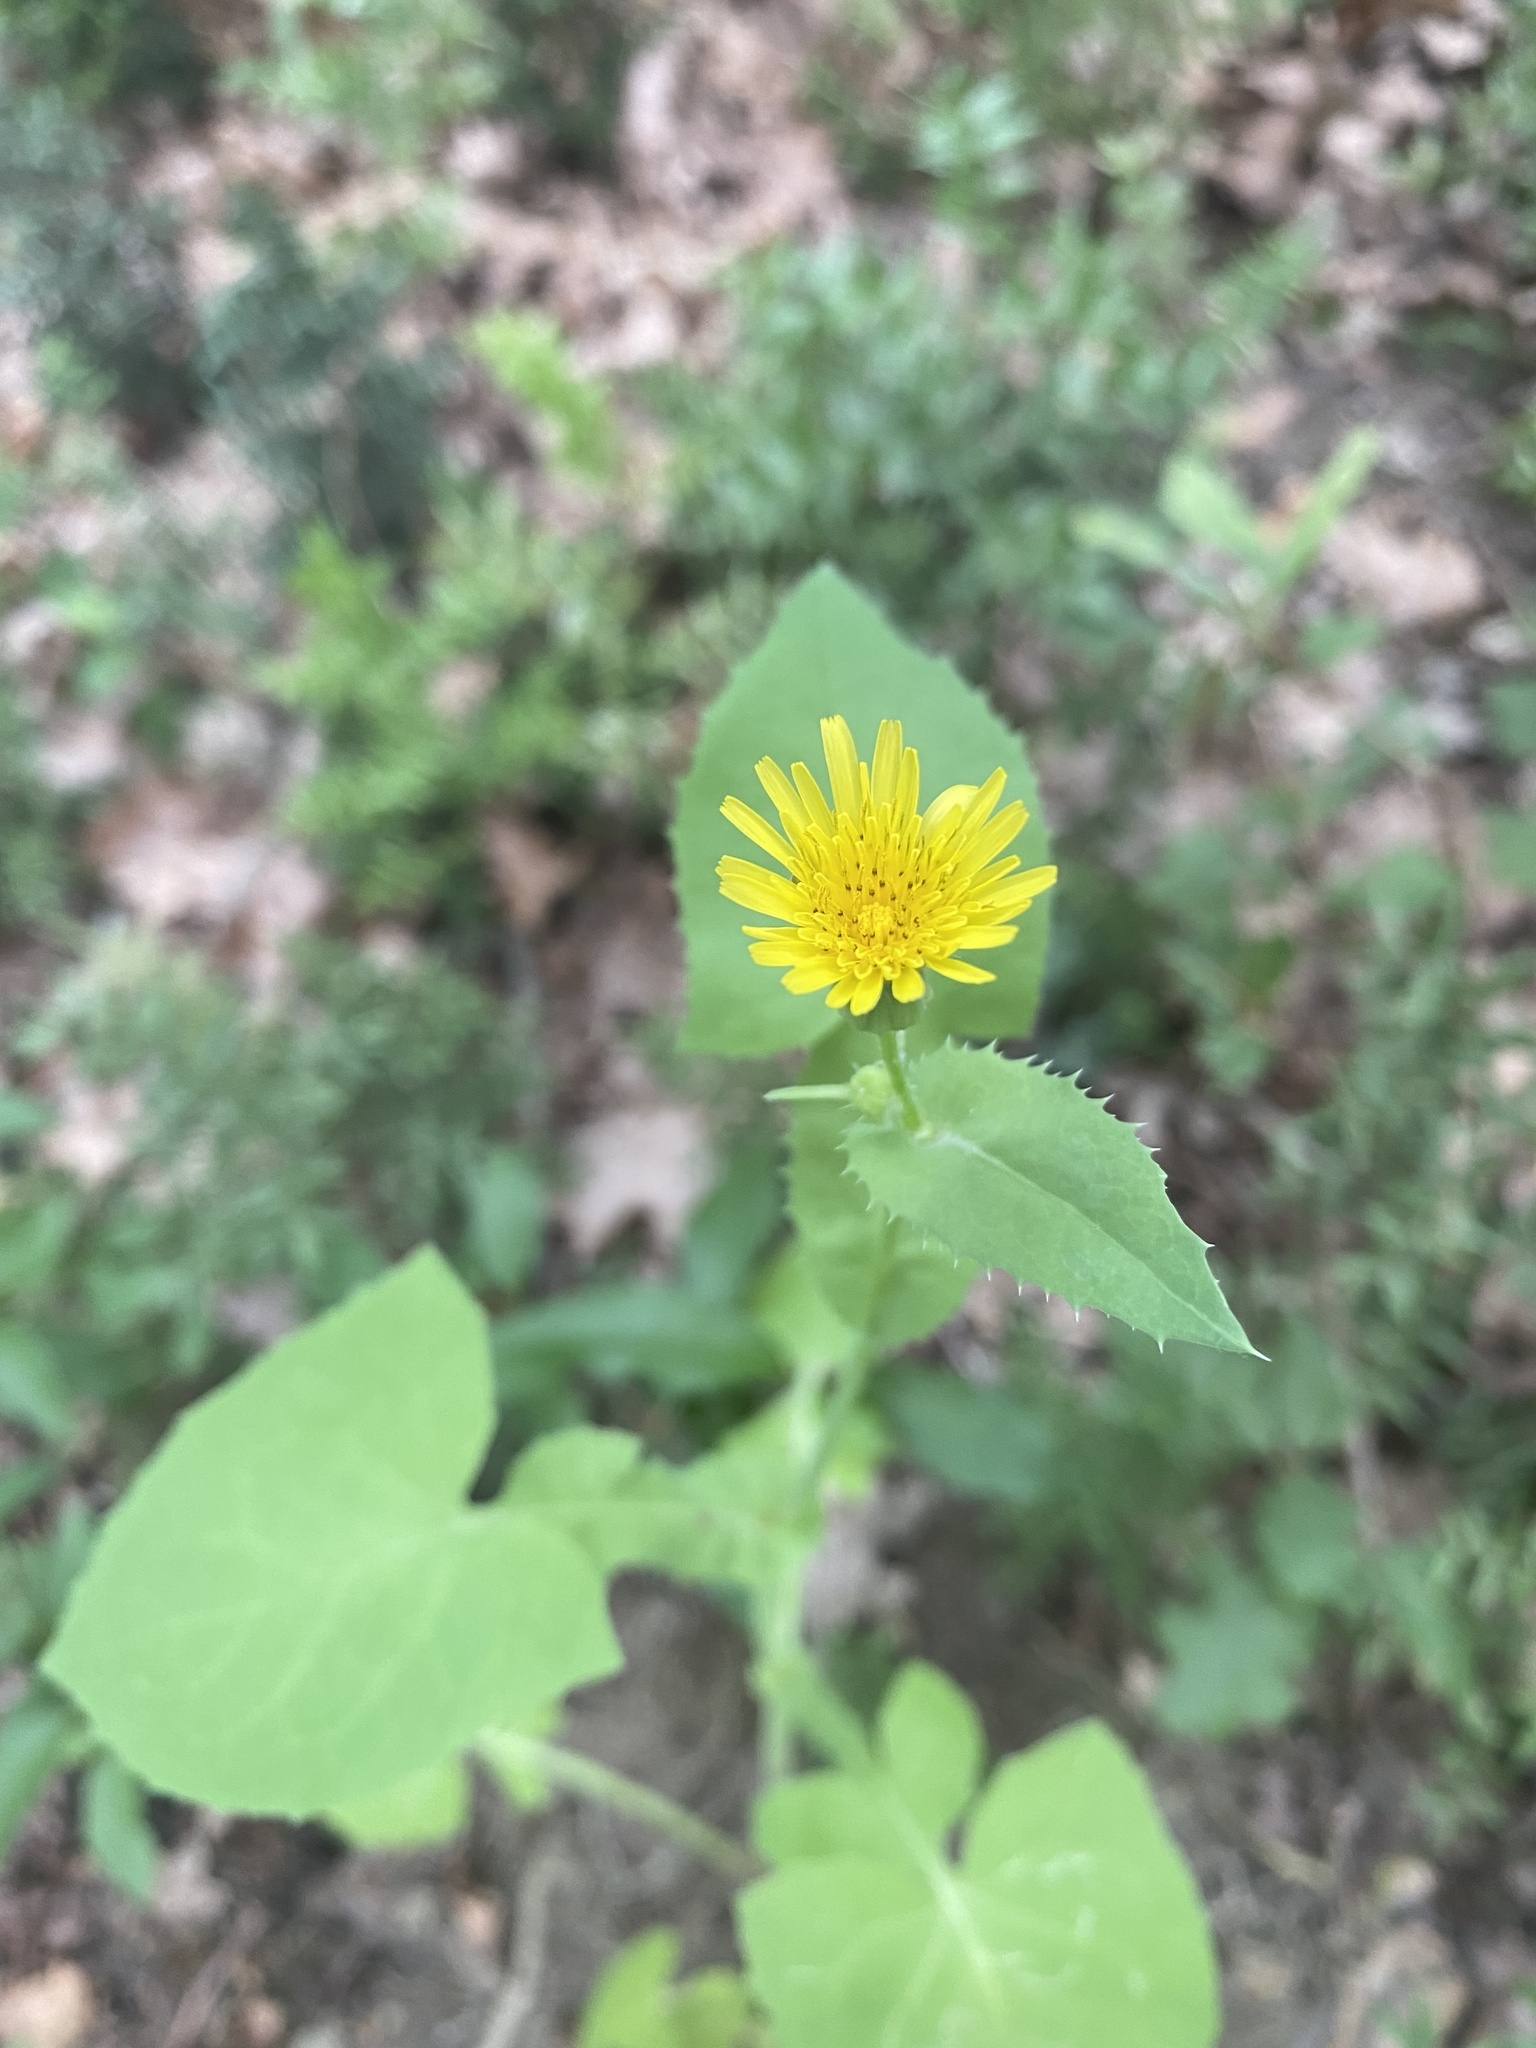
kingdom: Plantae
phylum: Tracheophyta
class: Magnoliopsida
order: Asterales
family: Asteraceae
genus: Sonchus
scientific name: Sonchus oleraceus
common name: Common sowthistle
